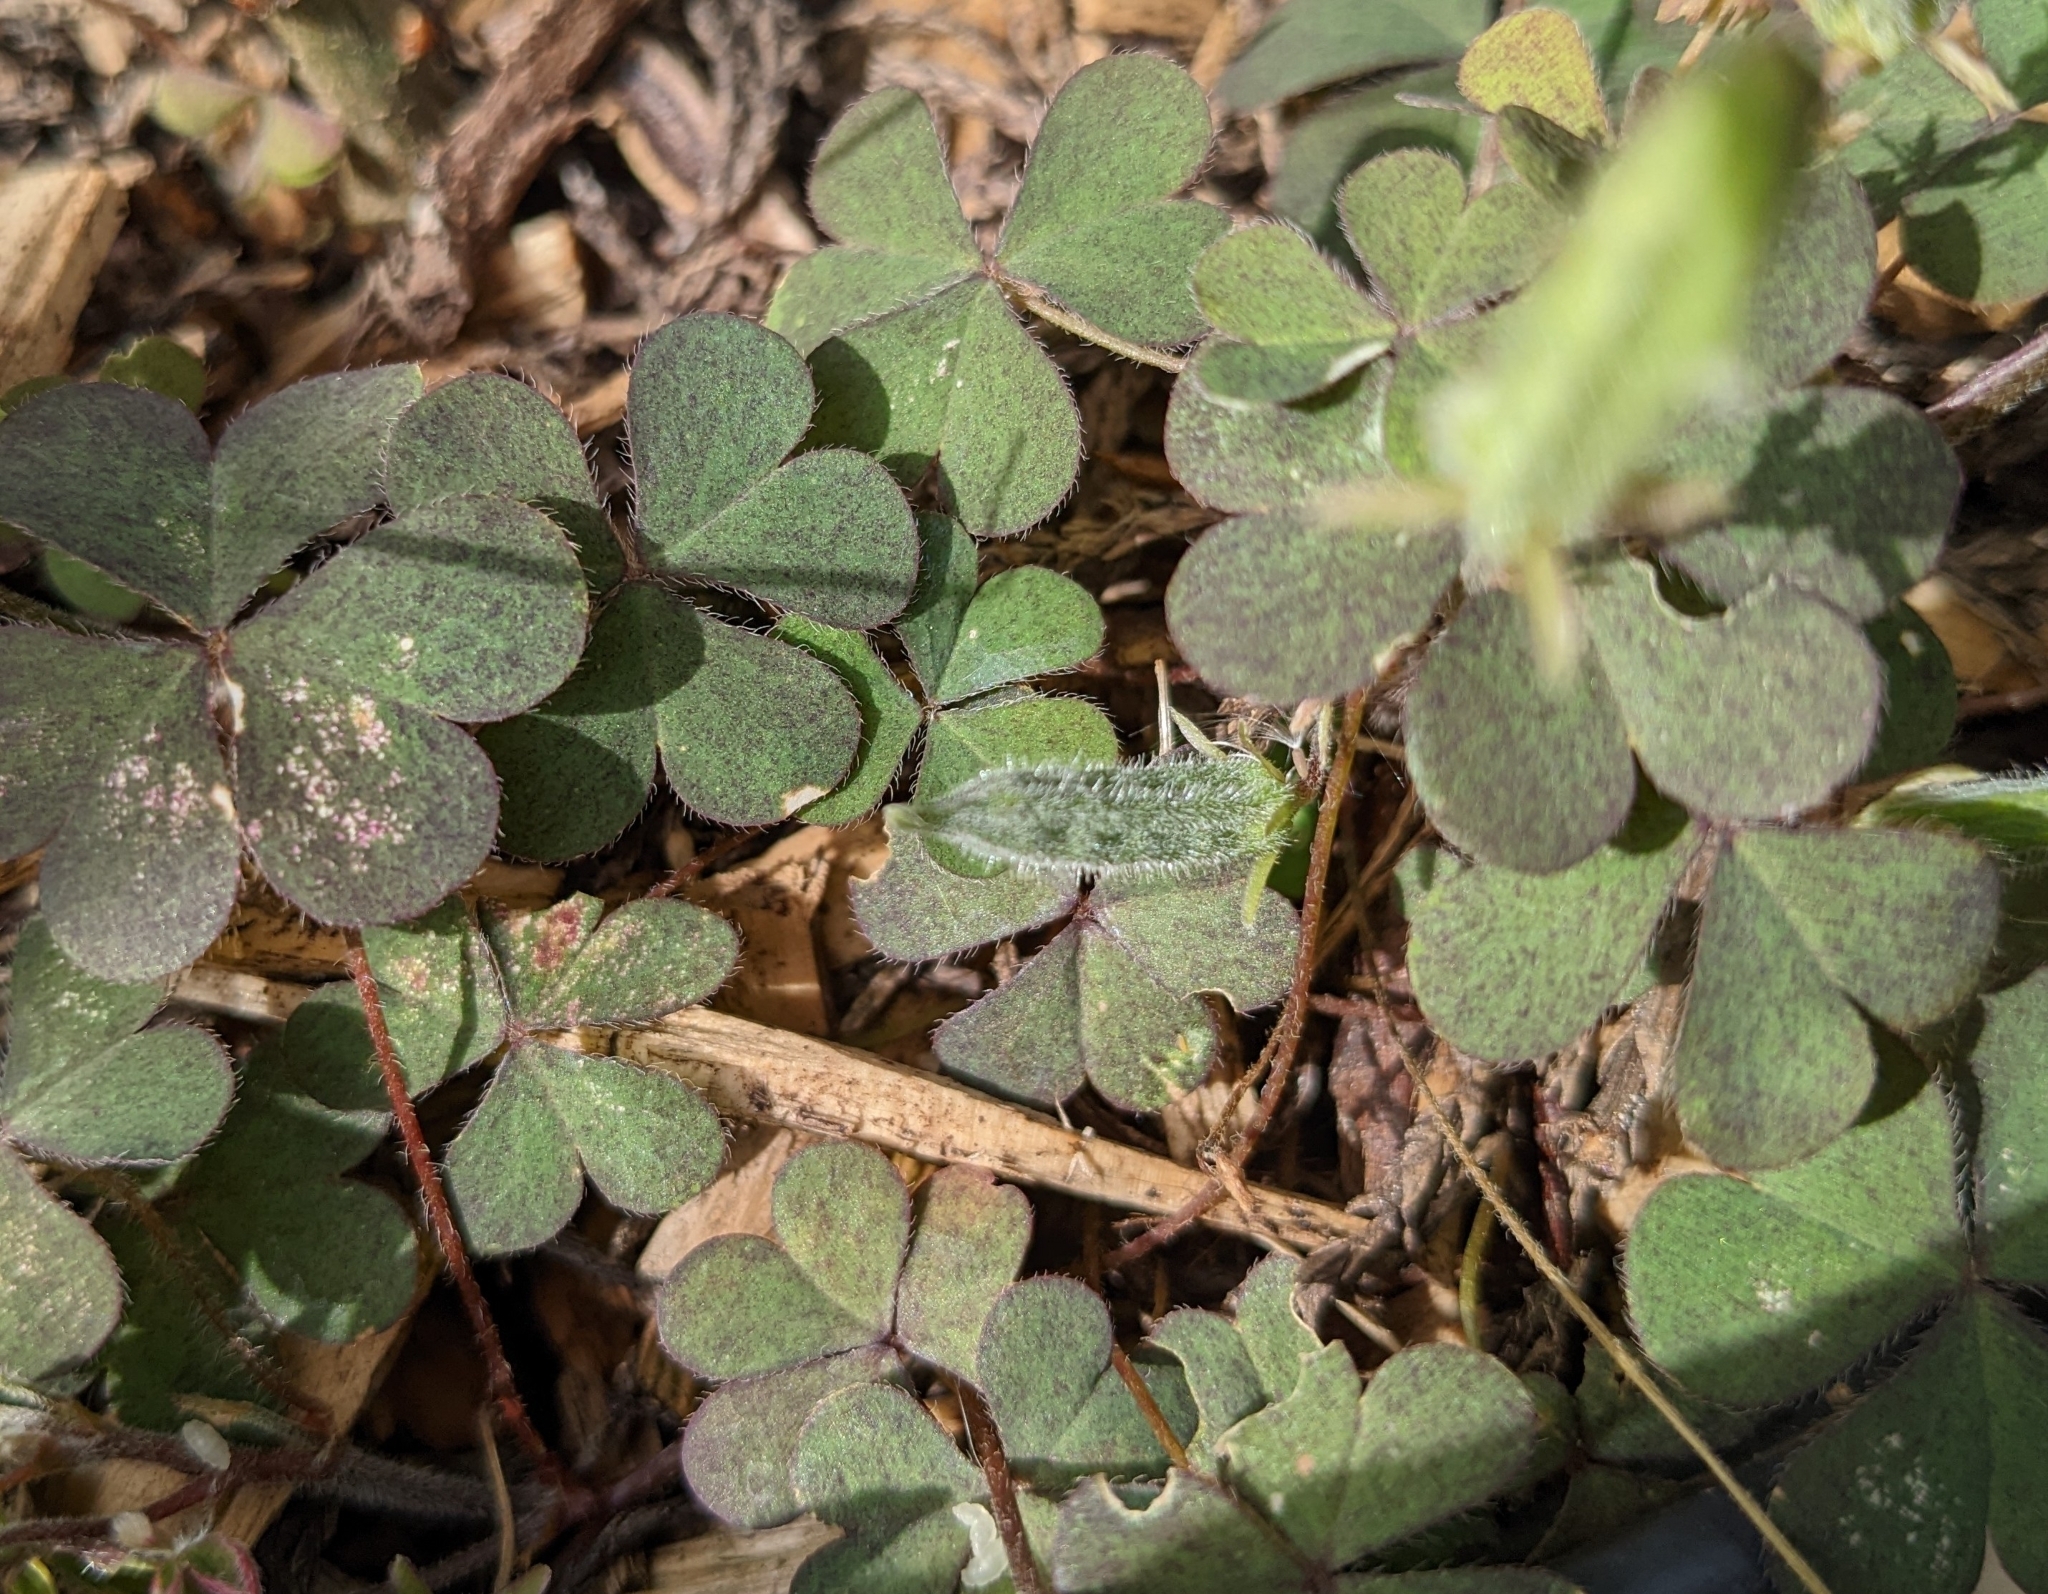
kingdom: Plantae
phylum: Tracheophyta
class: Magnoliopsida
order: Oxalidales
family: Oxalidaceae
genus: Oxalis
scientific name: Oxalis corniculata
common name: Procumbent yellow-sorrel
